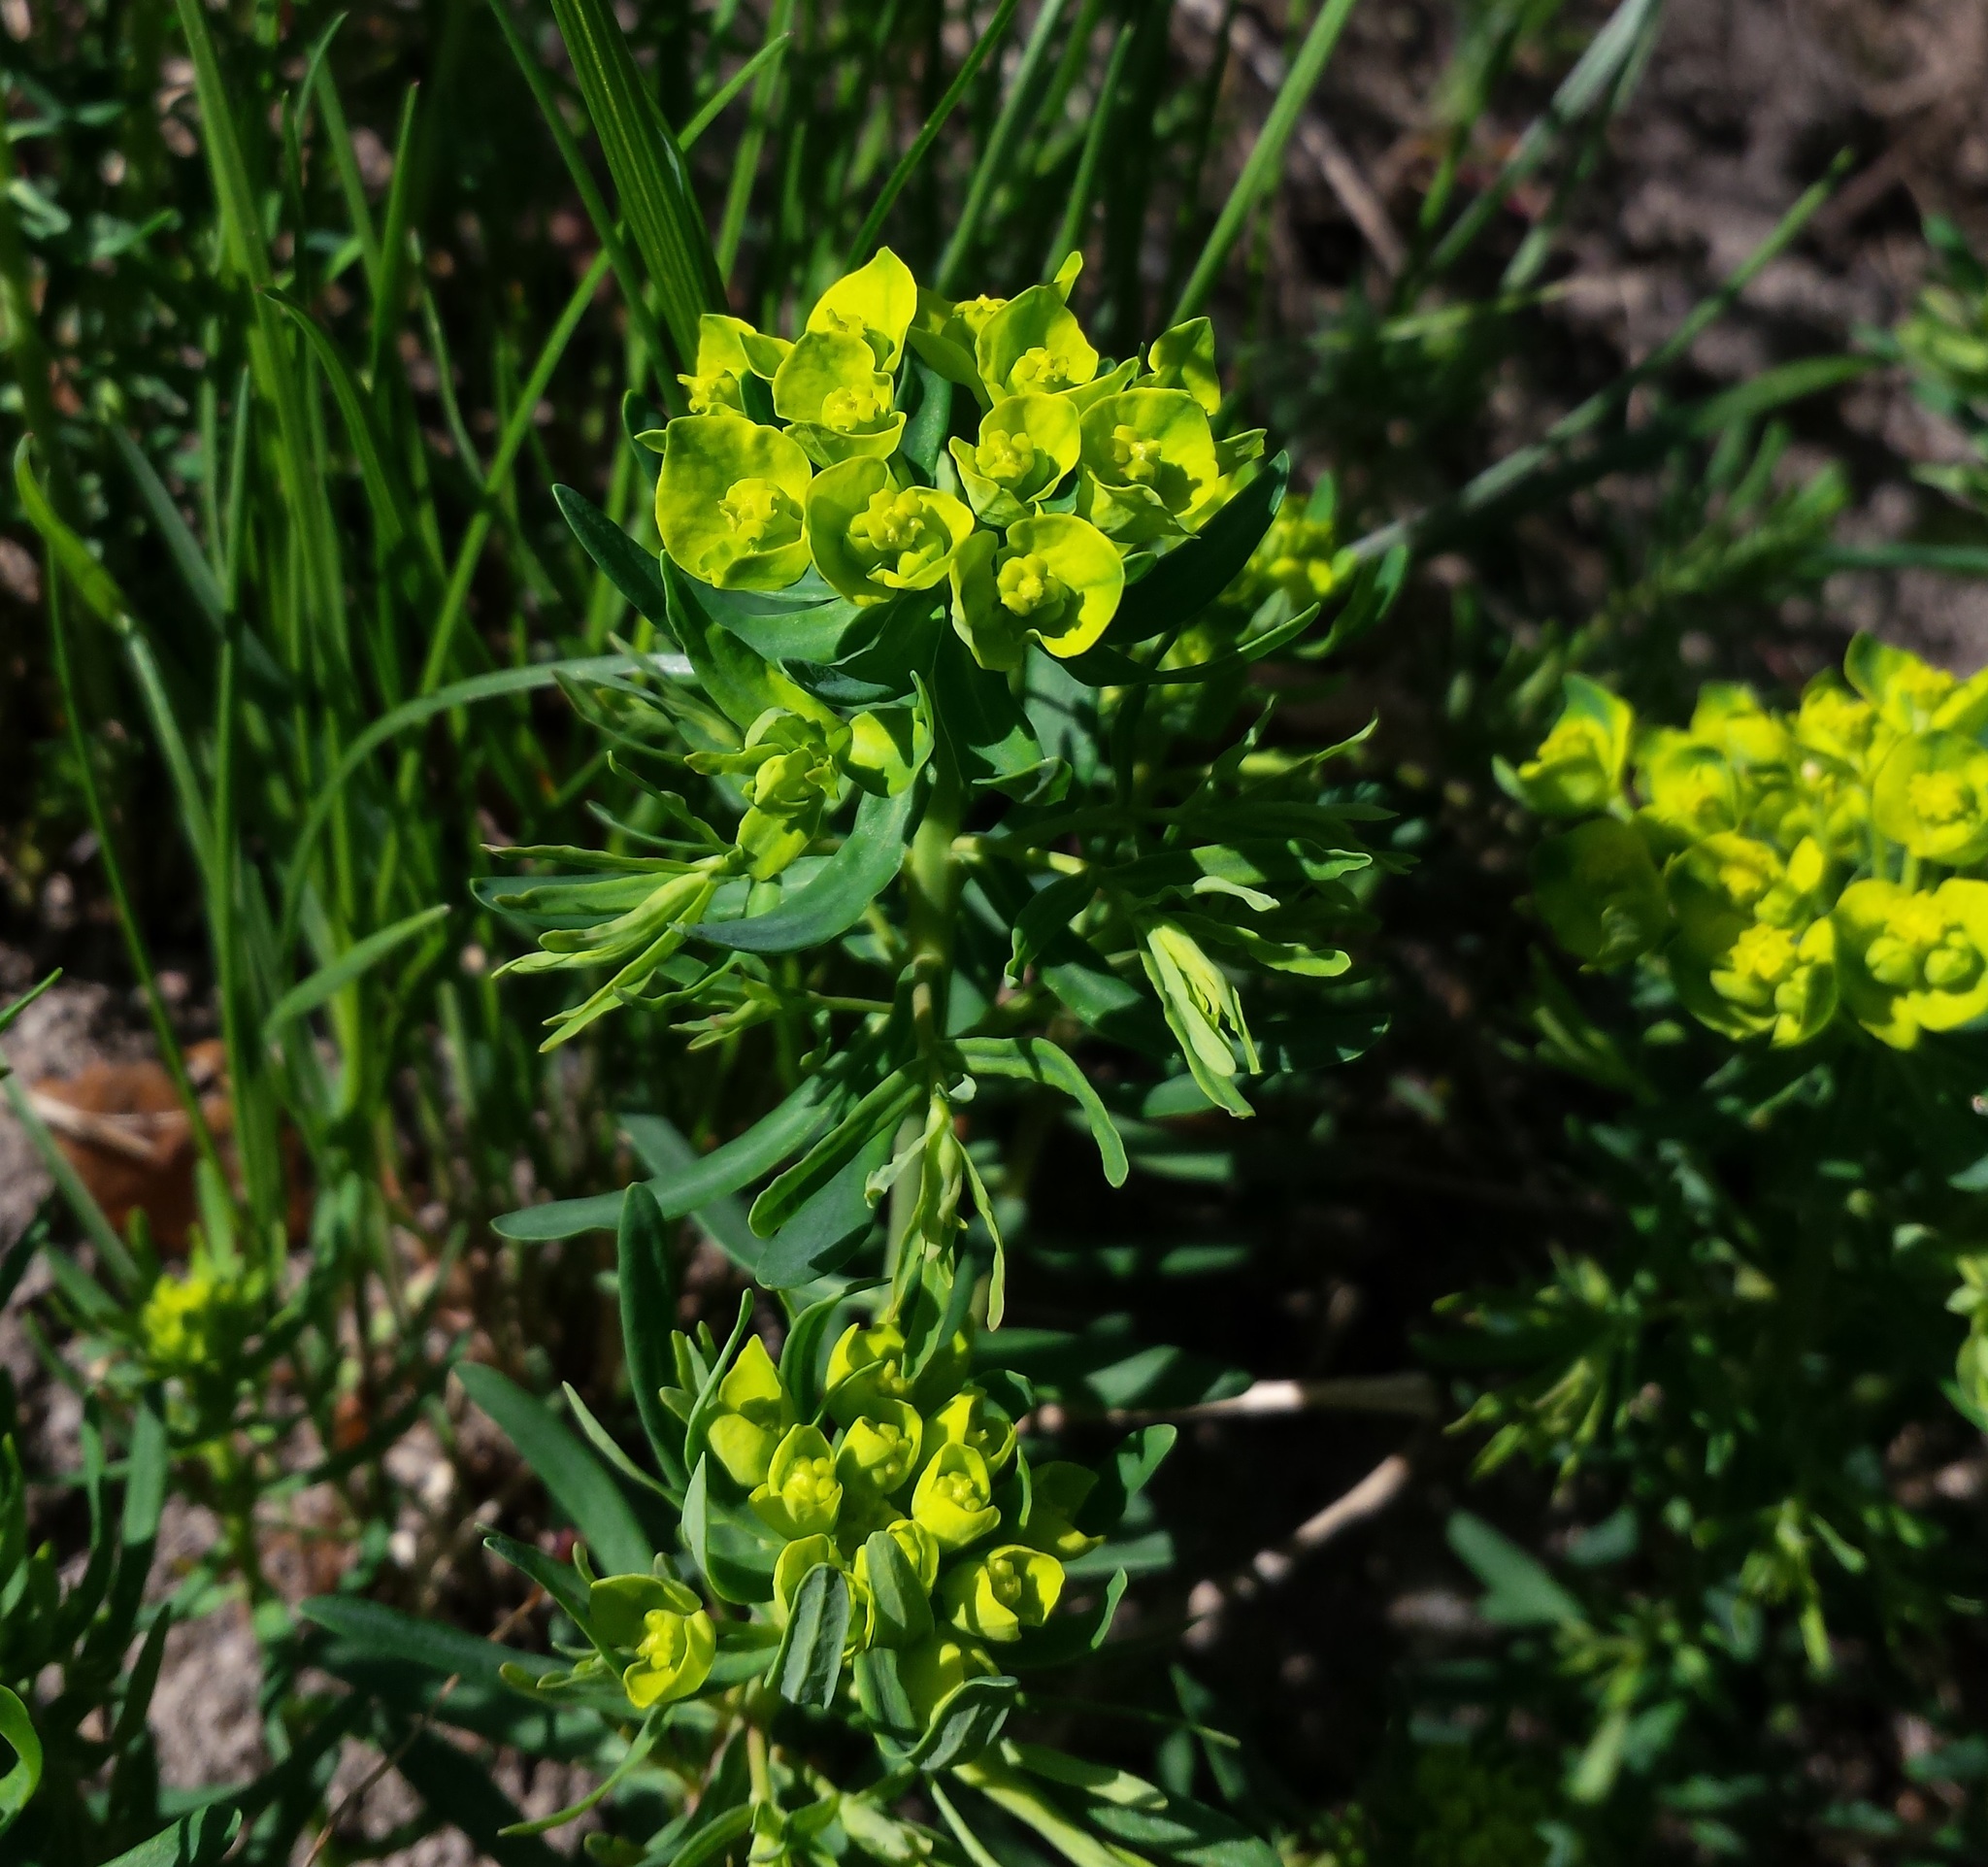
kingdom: Plantae
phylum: Tracheophyta
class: Magnoliopsida
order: Malpighiales
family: Euphorbiaceae
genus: Euphorbia
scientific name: Euphorbia cyparissias
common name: Cypress spurge
